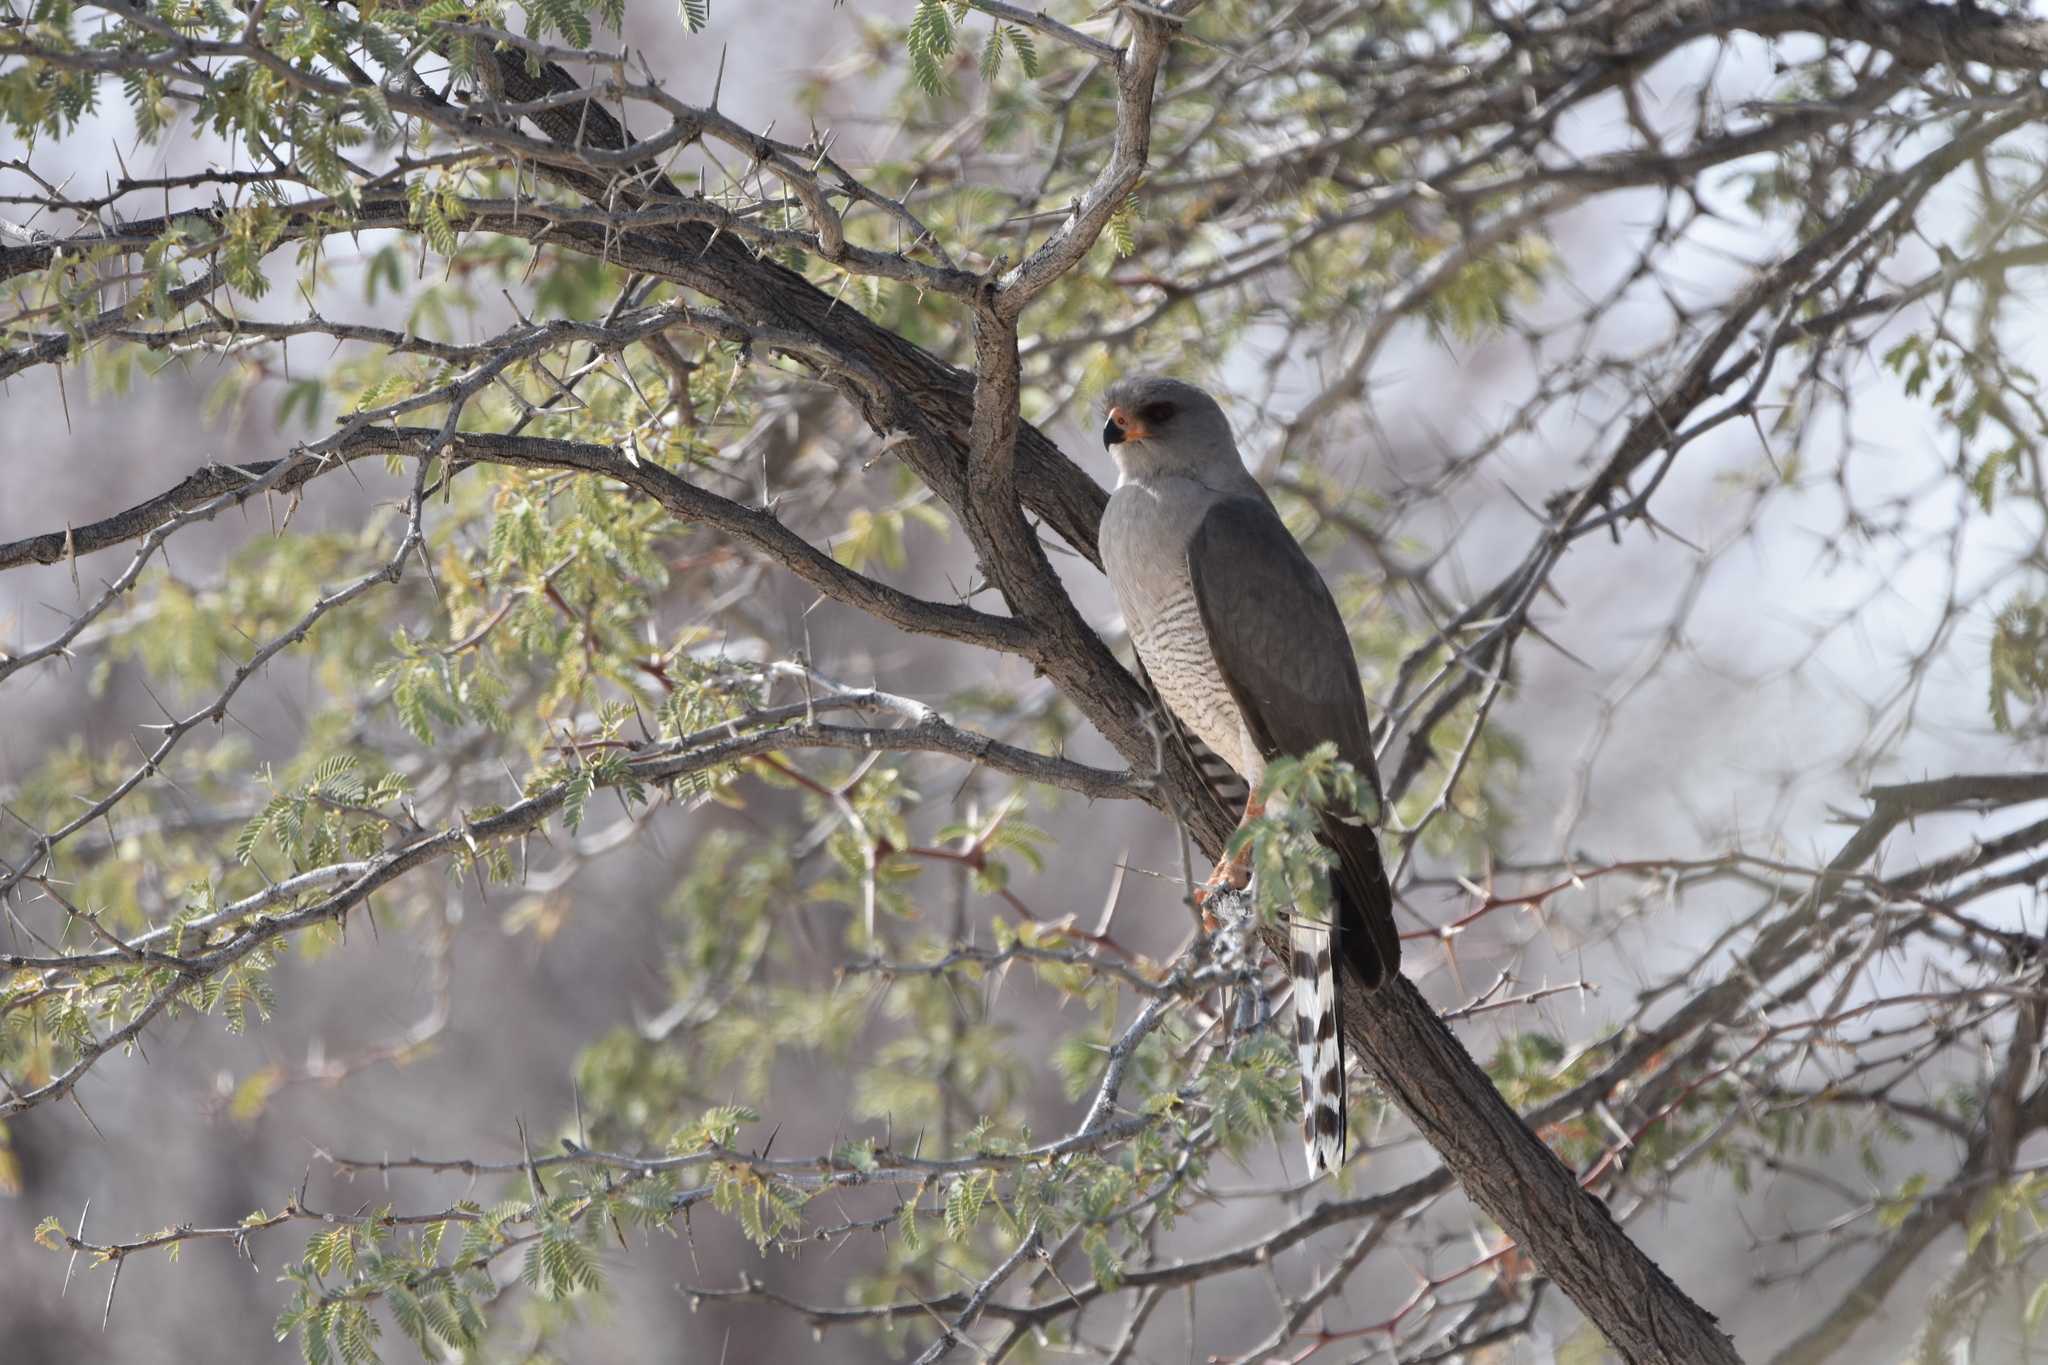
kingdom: Animalia
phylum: Chordata
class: Aves
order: Accipitriformes
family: Accipitridae
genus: Micronisus
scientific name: Micronisus gabar
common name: Gabar goshawk
